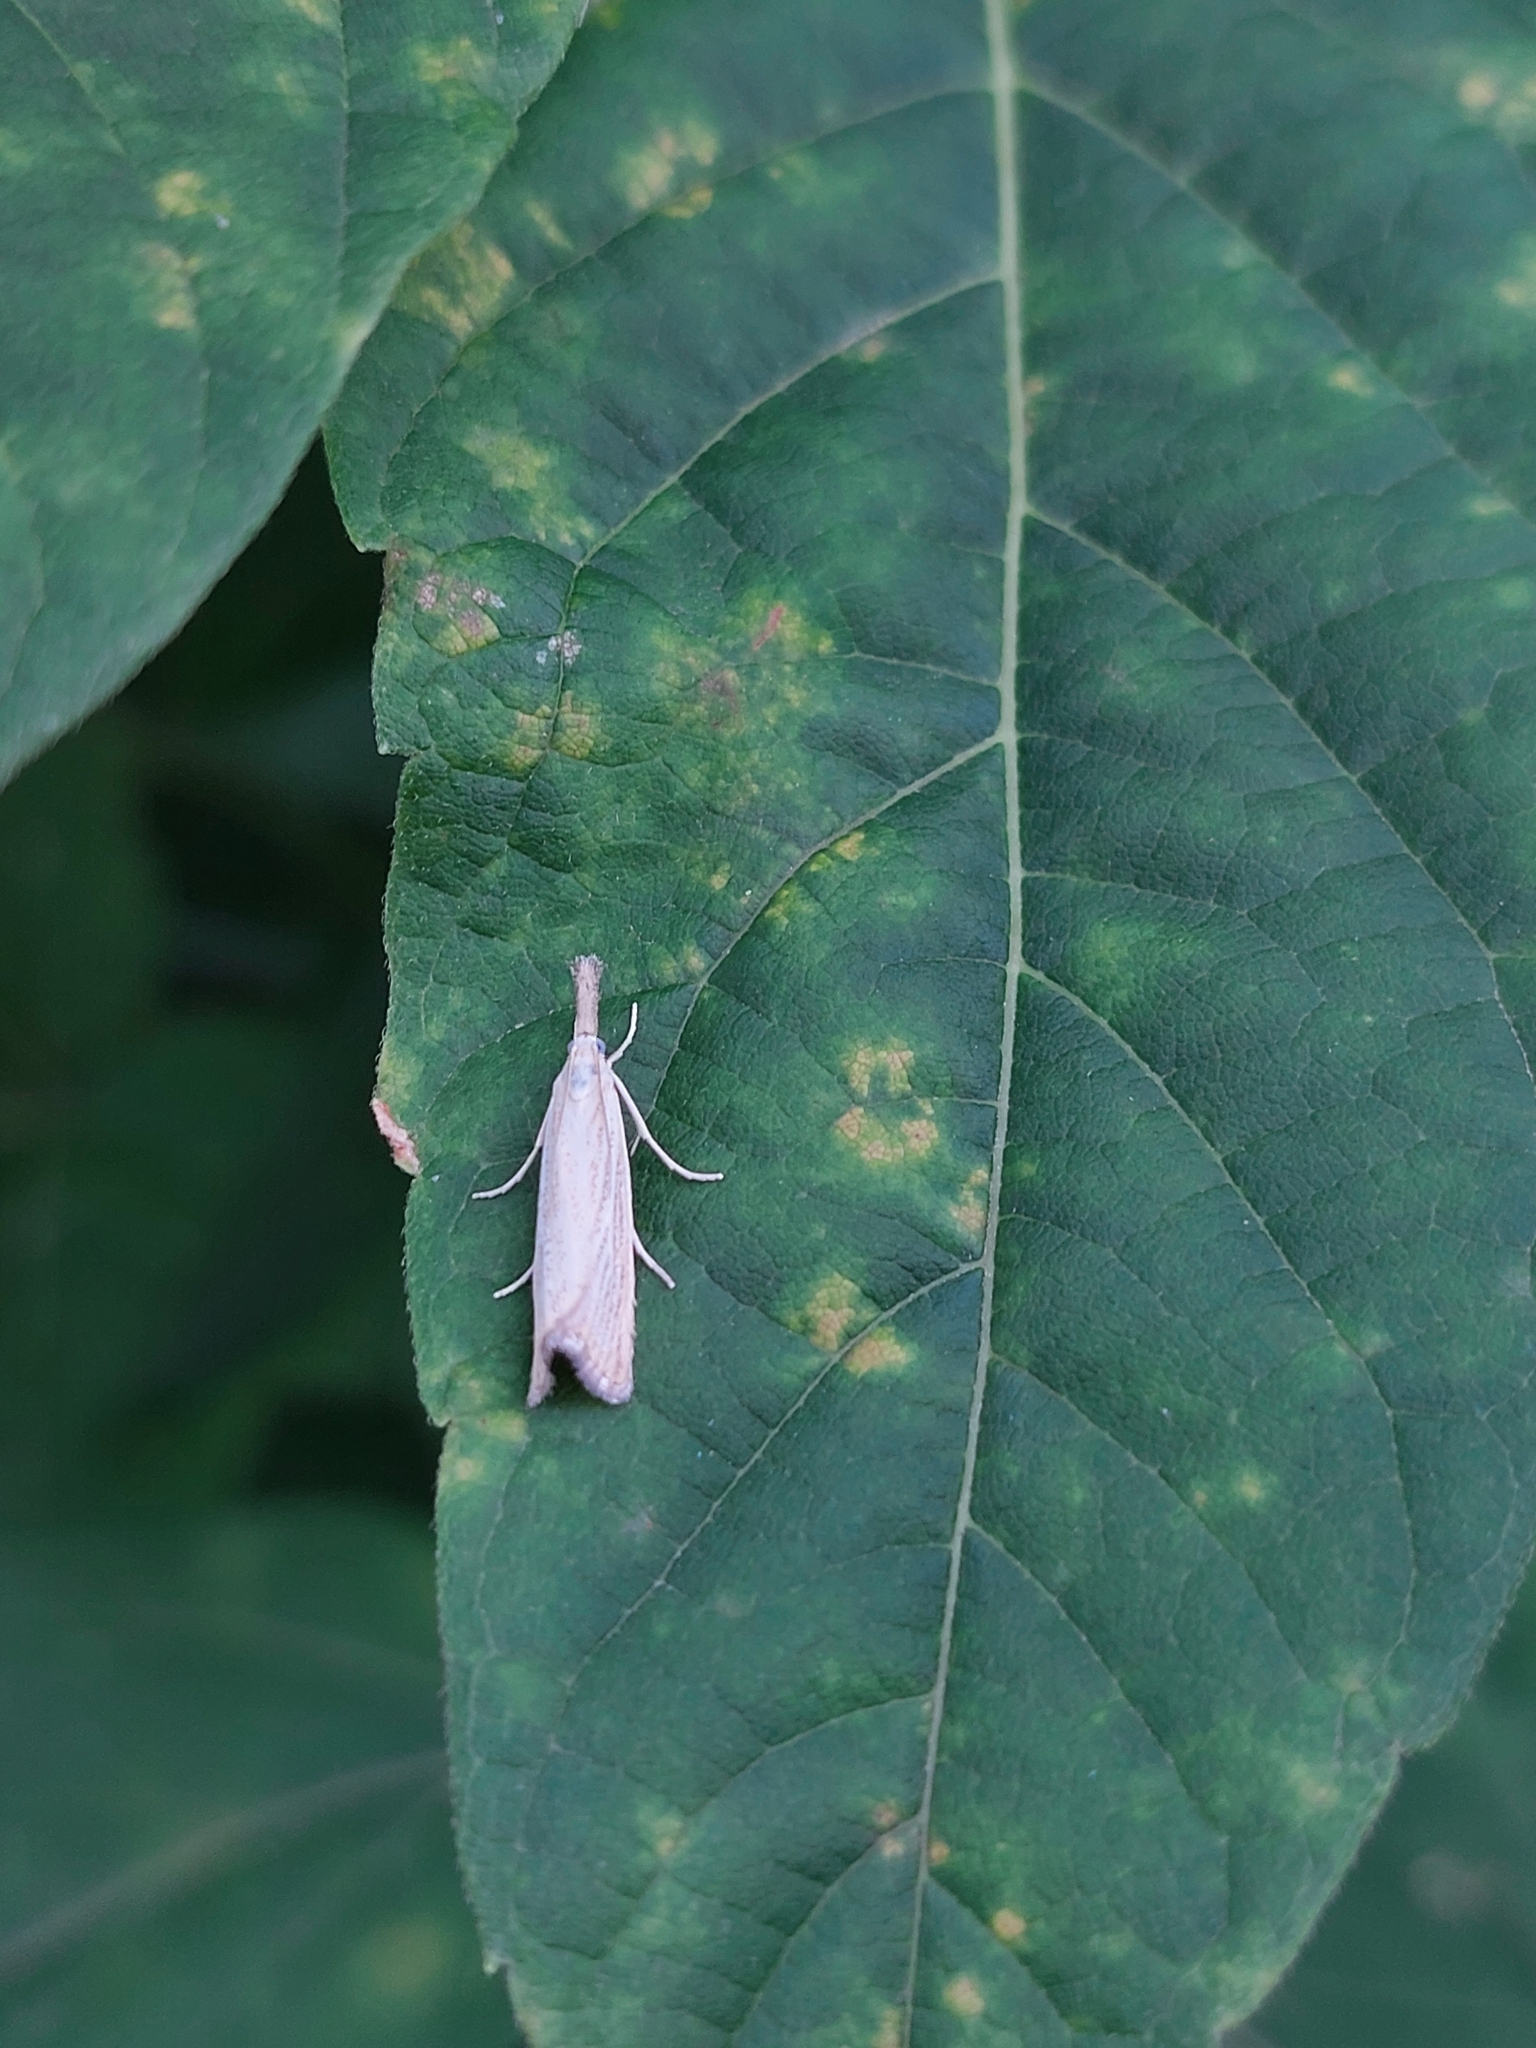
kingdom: Animalia
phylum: Arthropoda
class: Insecta
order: Lepidoptera
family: Crambidae
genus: Agriphila
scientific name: Agriphila straminella
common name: Straw grass-veneer
